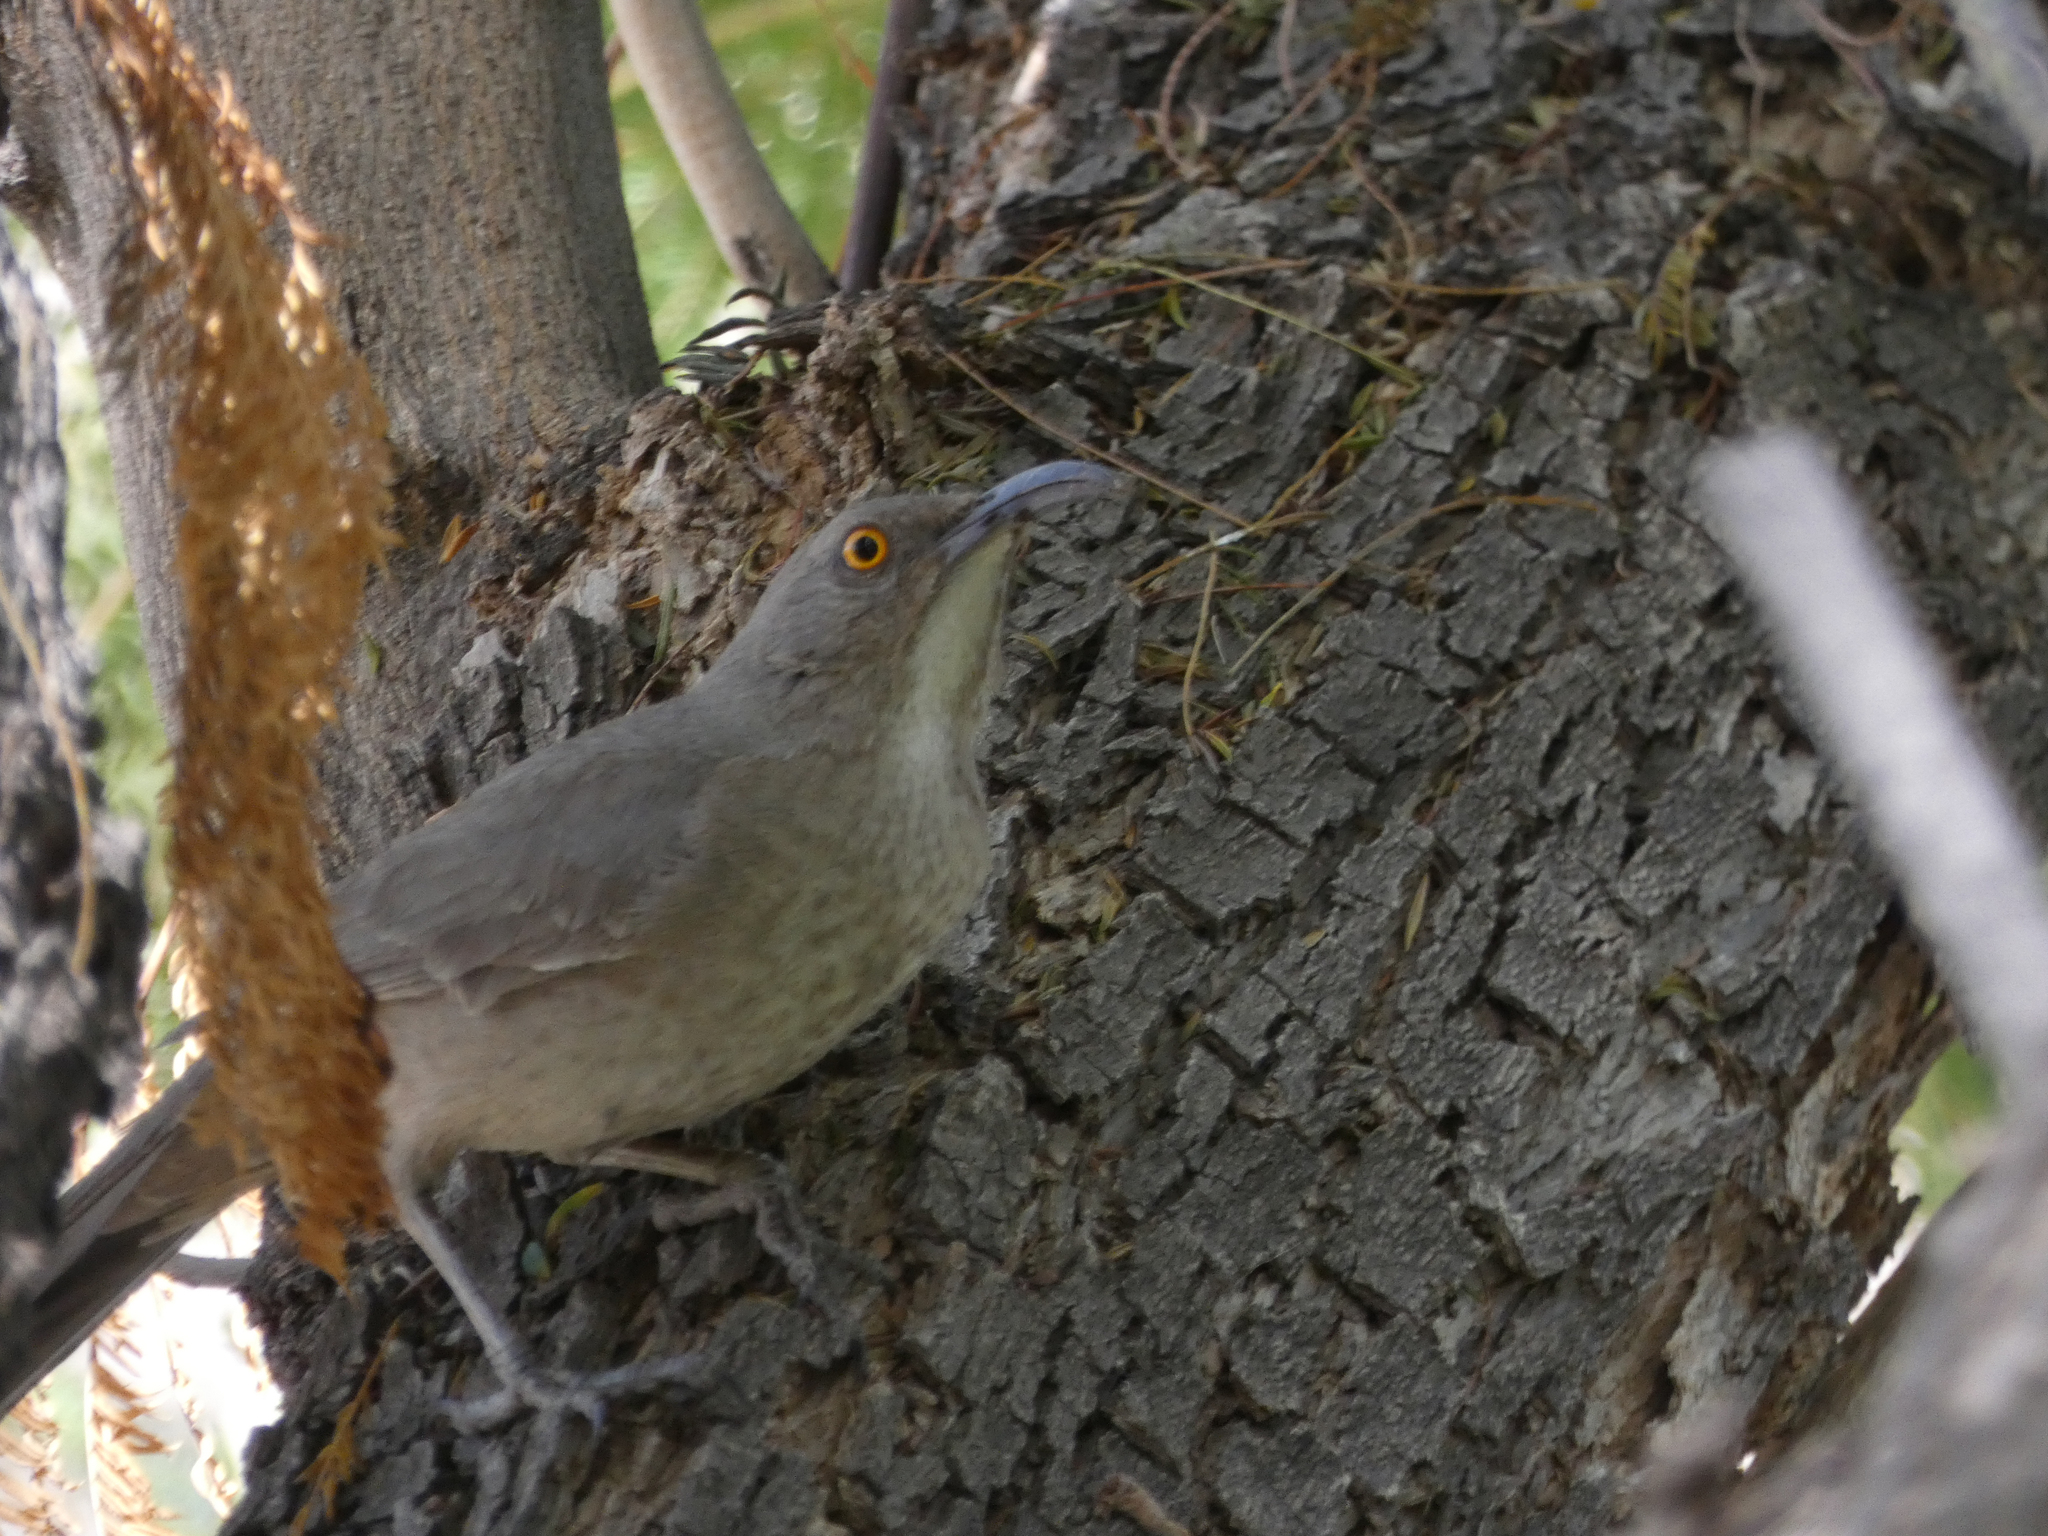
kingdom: Animalia
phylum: Chordata
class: Aves
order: Passeriformes
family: Mimidae
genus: Toxostoma
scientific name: Toxostoma curvirostre
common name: Curve-billed thrasher
